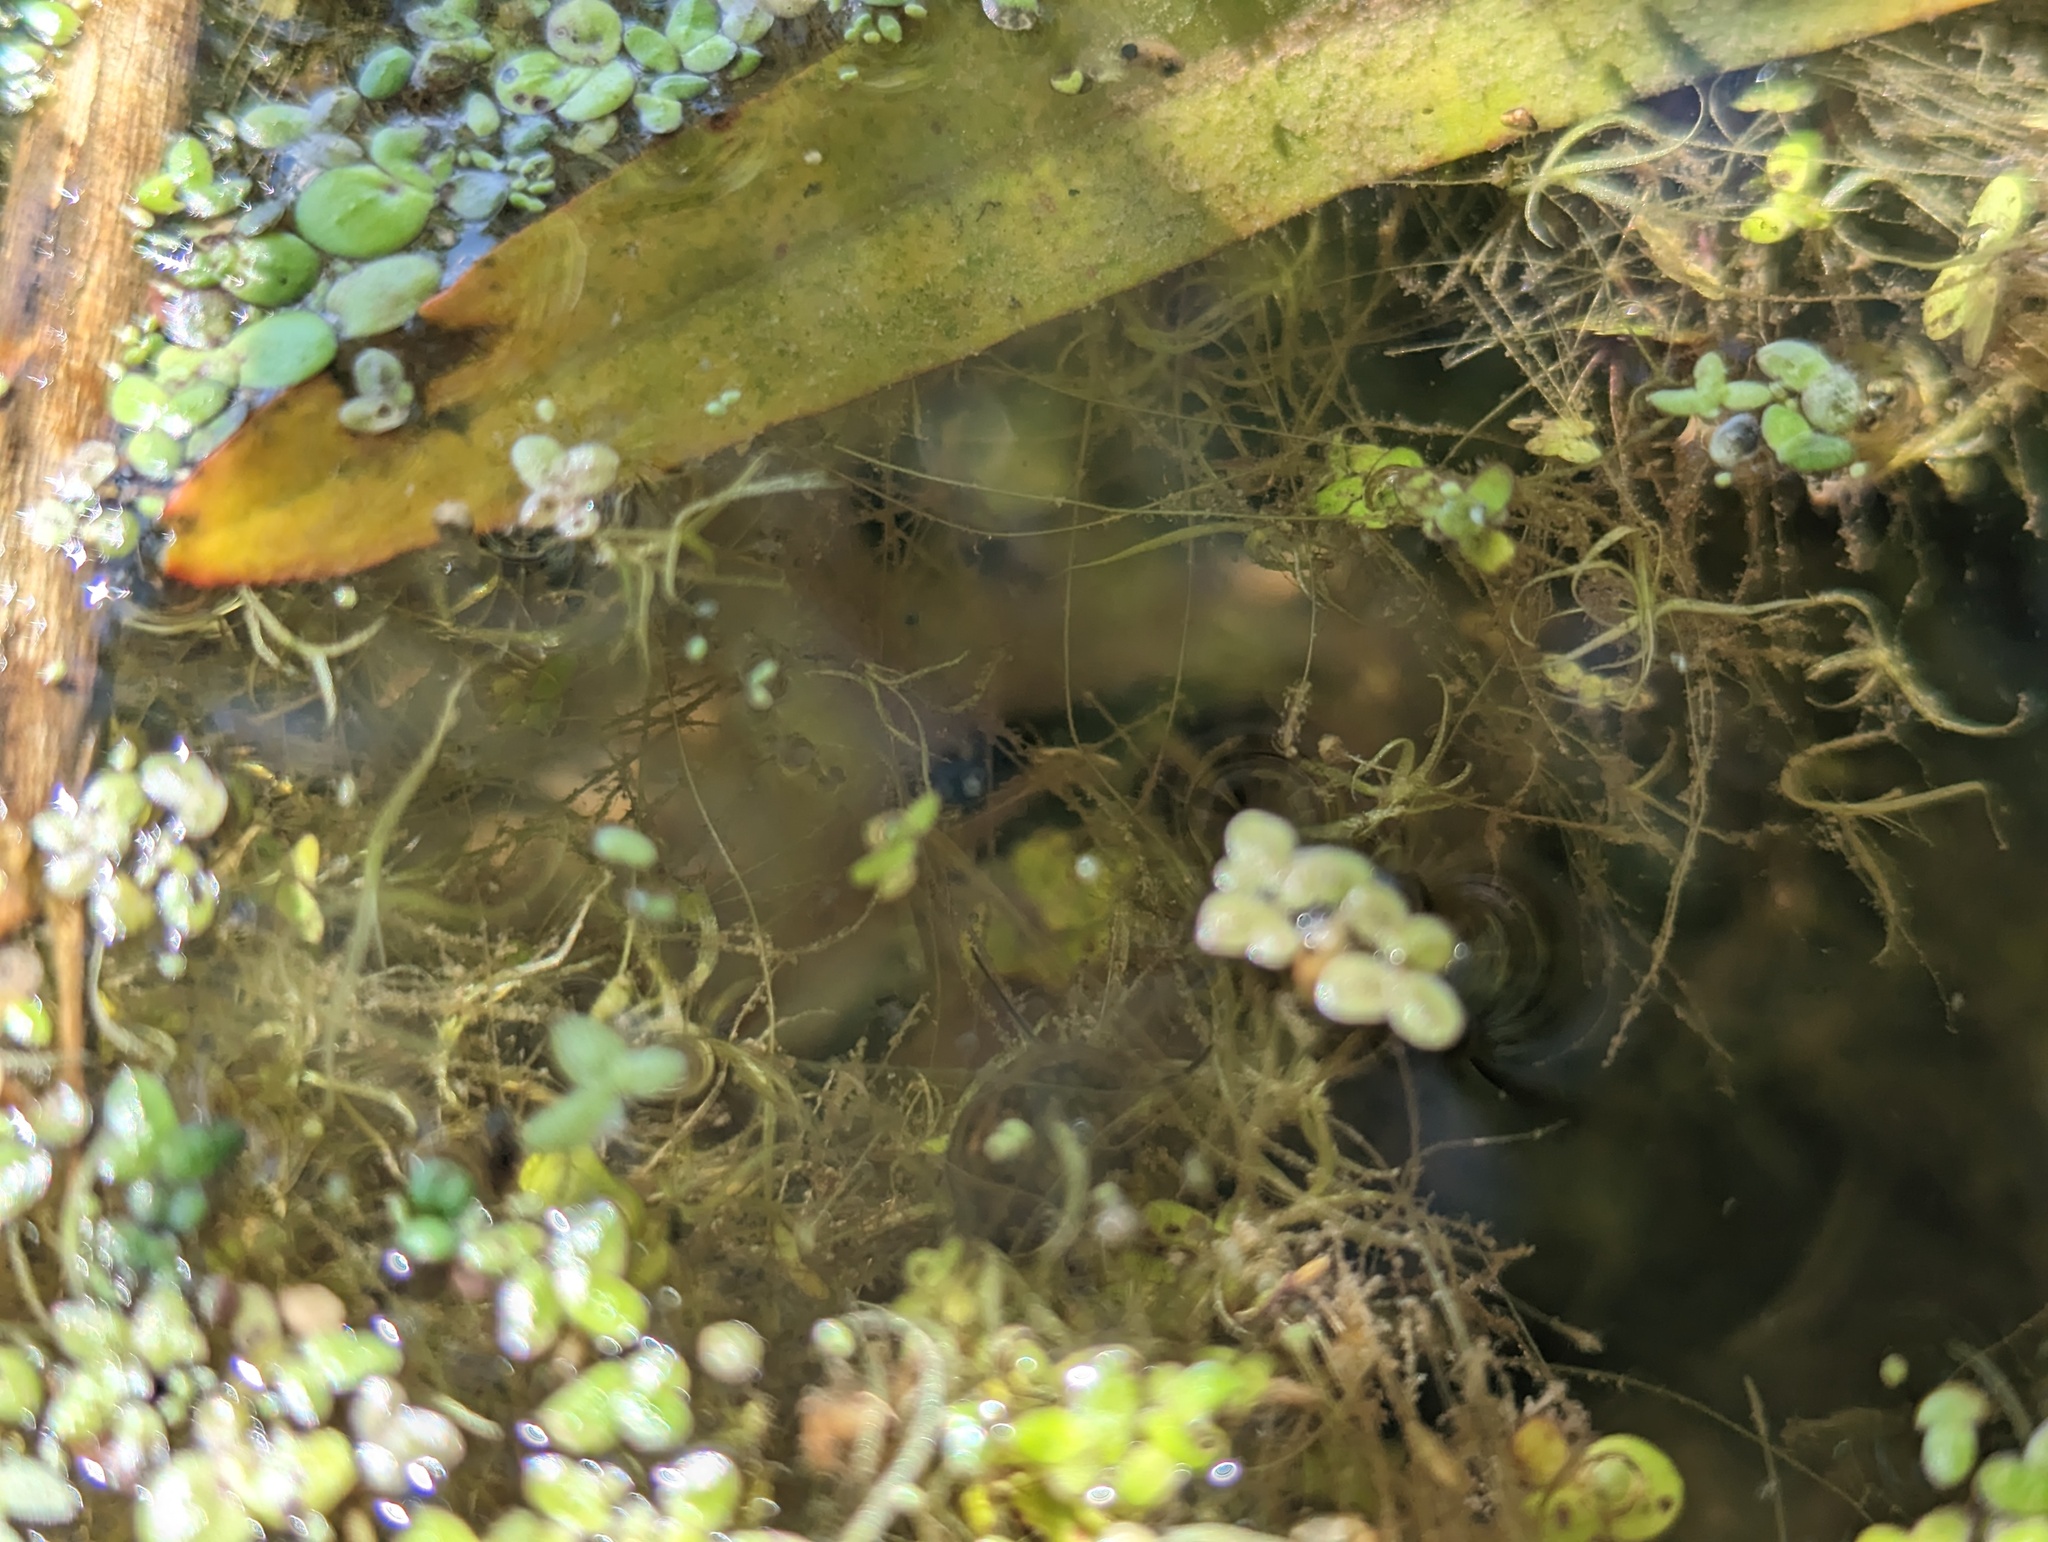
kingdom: Plantae
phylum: Tracheophyta
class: Liliopsida
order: Alismatales
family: Araceae
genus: Wolffiella
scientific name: Wolffiella gladiata
